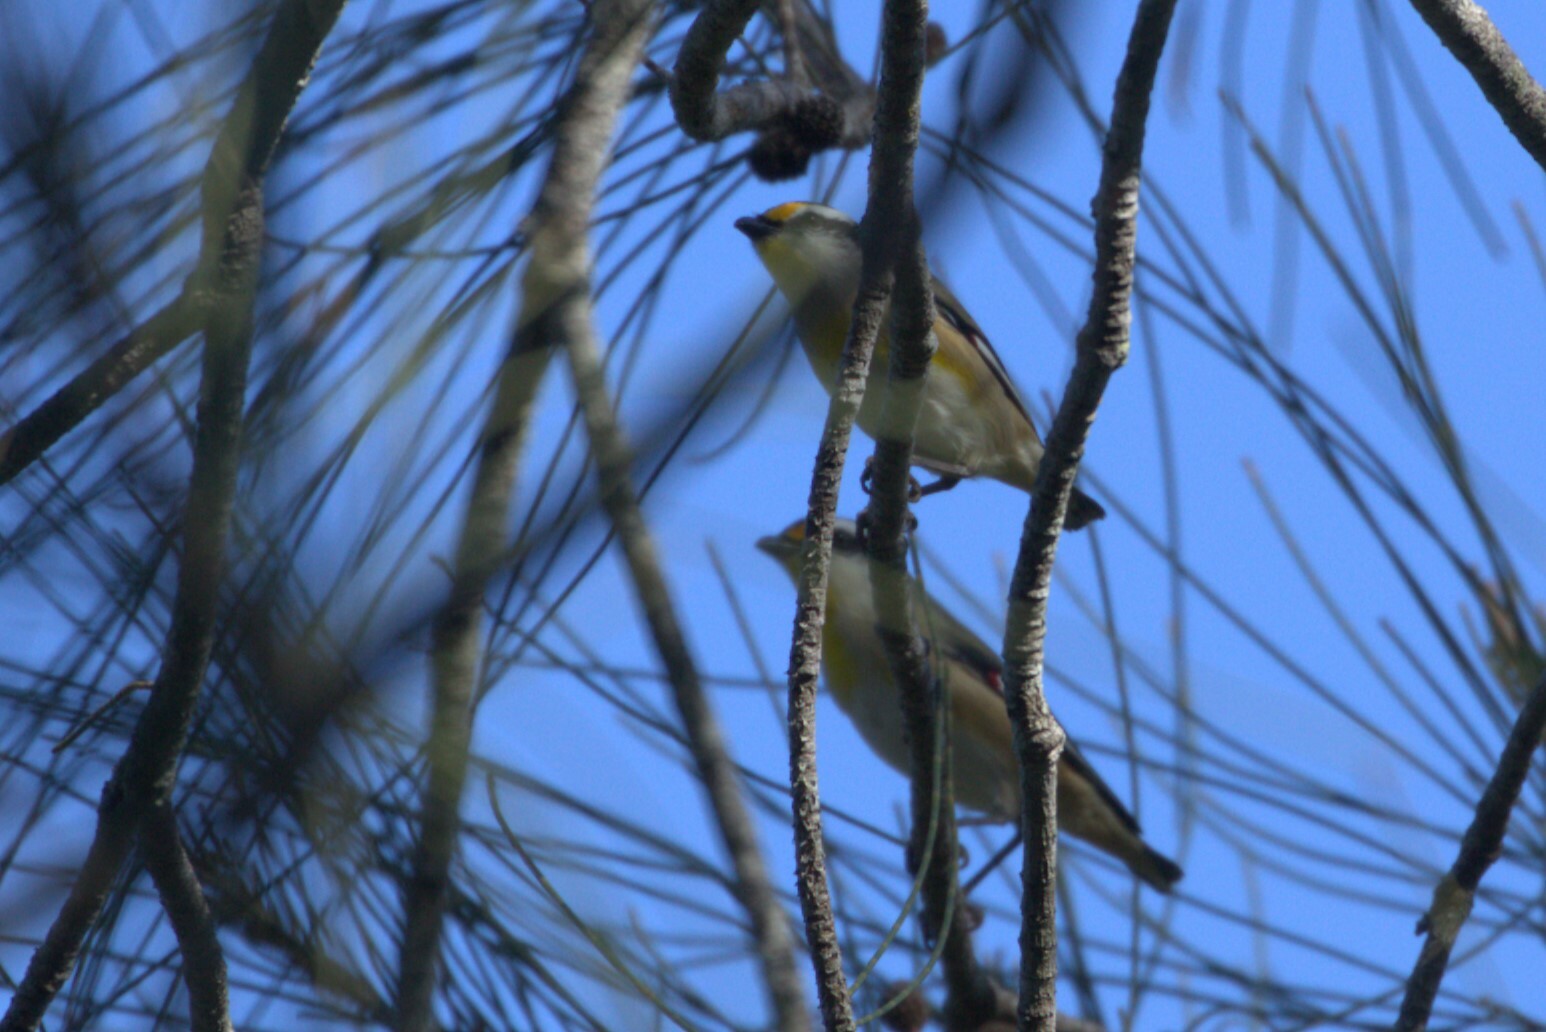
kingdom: Animalia
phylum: Chordata
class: Aves
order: Passeriformes
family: Pardalotidae
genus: Pardalotus
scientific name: Pardalotus striatus
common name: Striated pardalote
